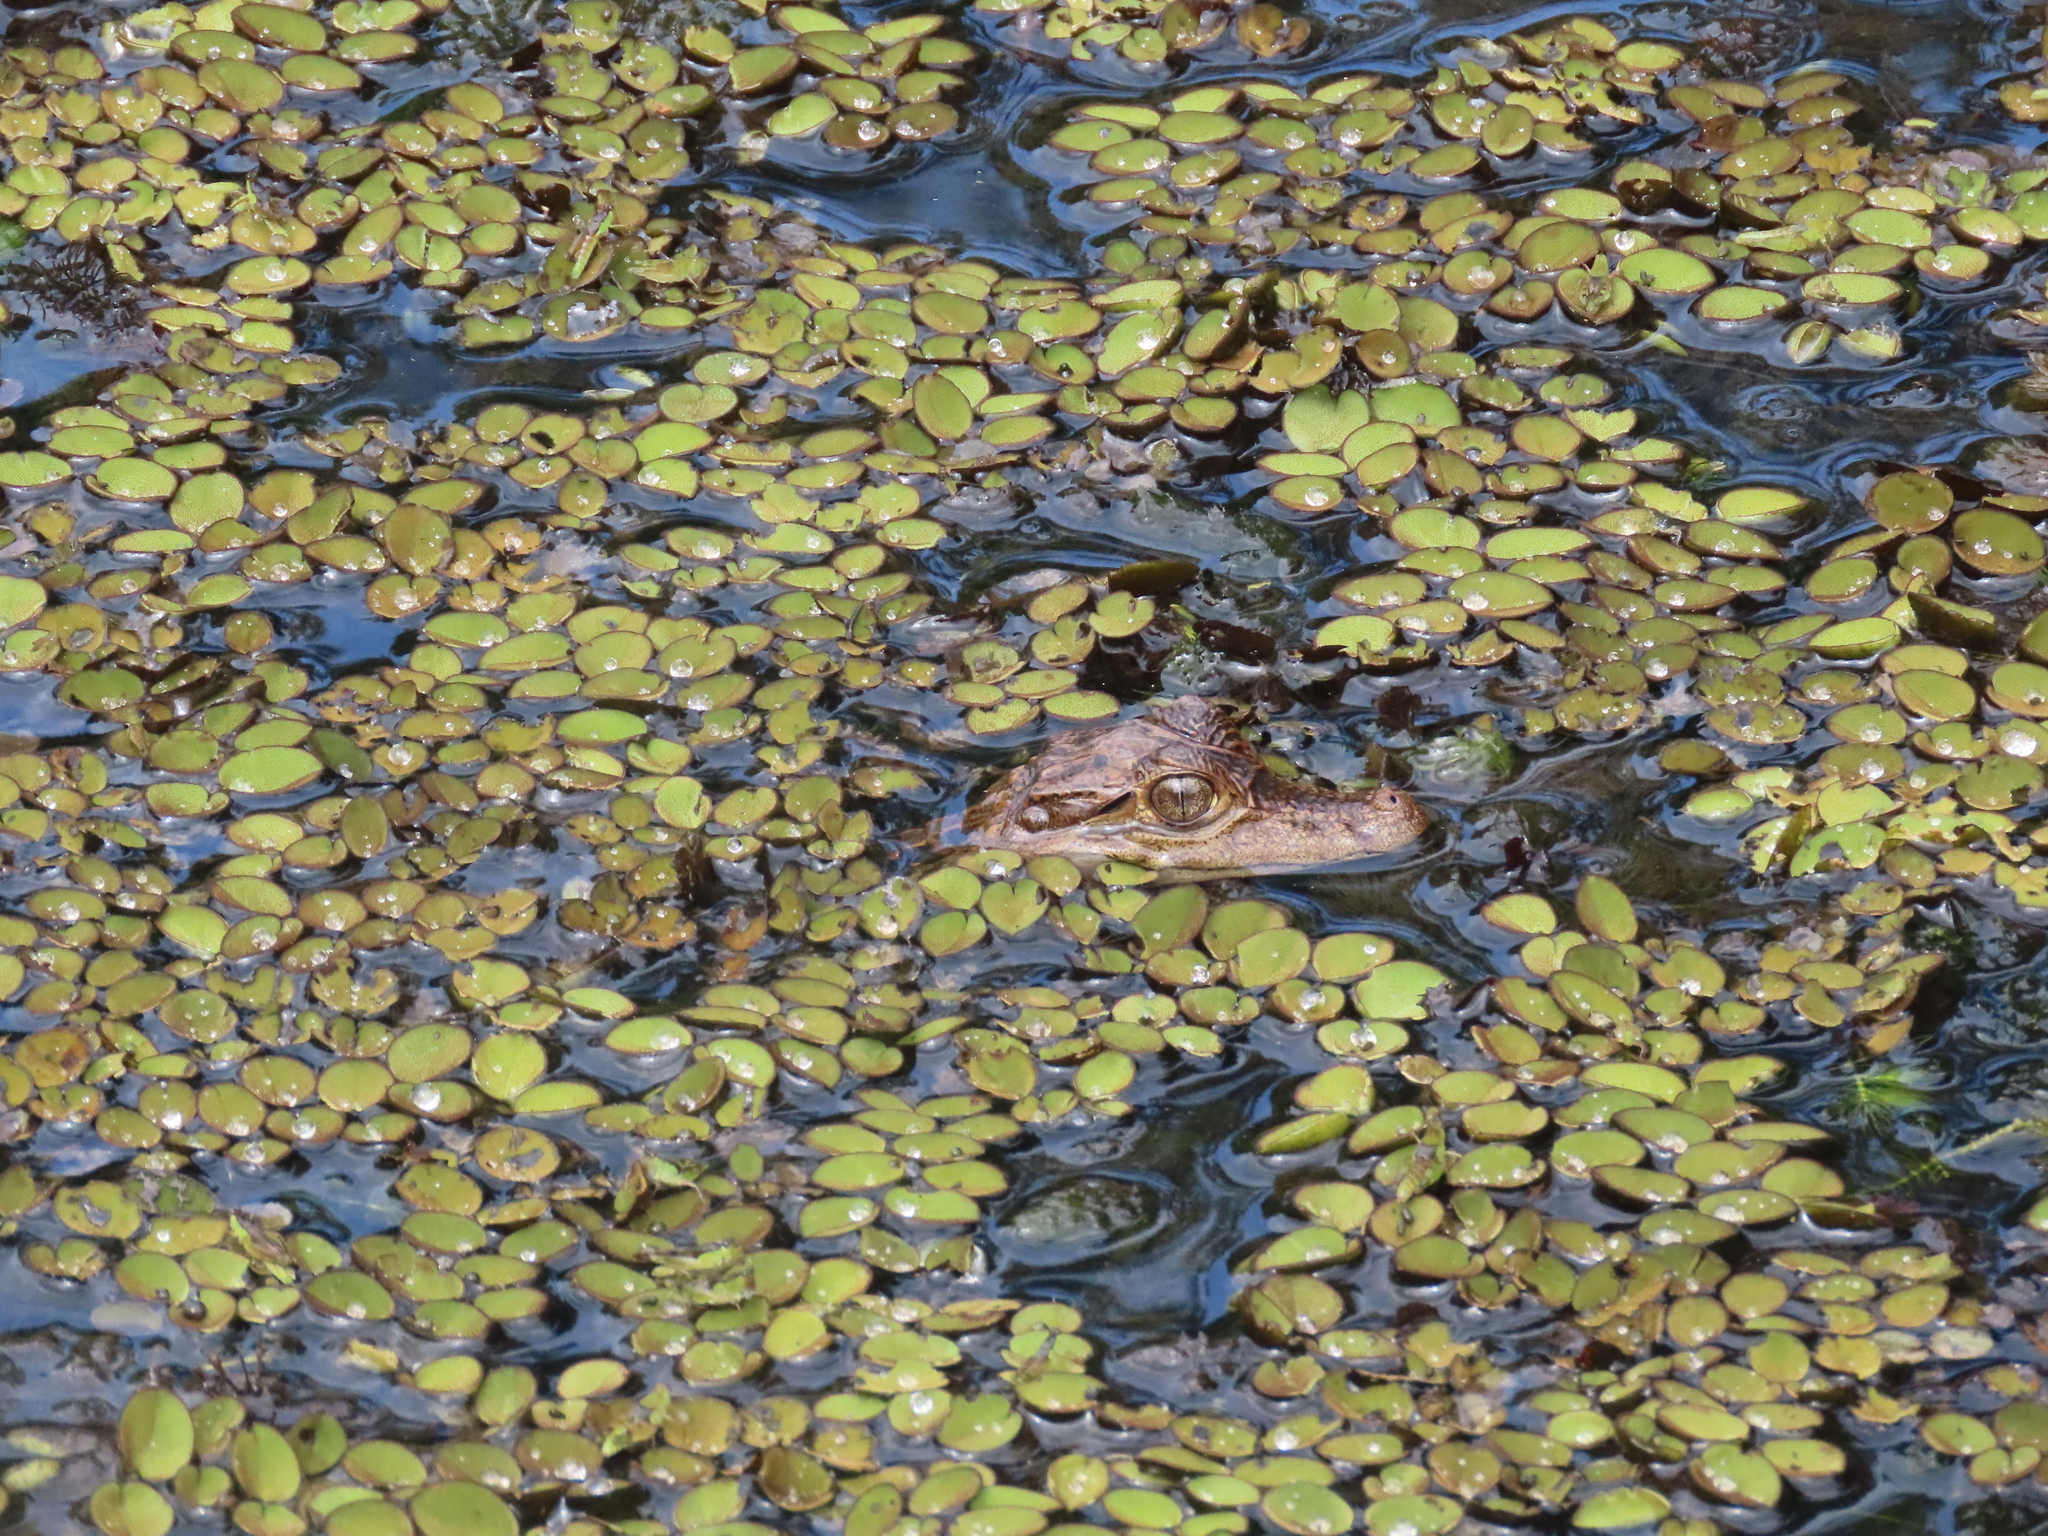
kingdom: Animalia
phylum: Chordata
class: Crocodylia
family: Alligatoridae
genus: Caiman
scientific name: Caiman crocodilus
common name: Common caiman
